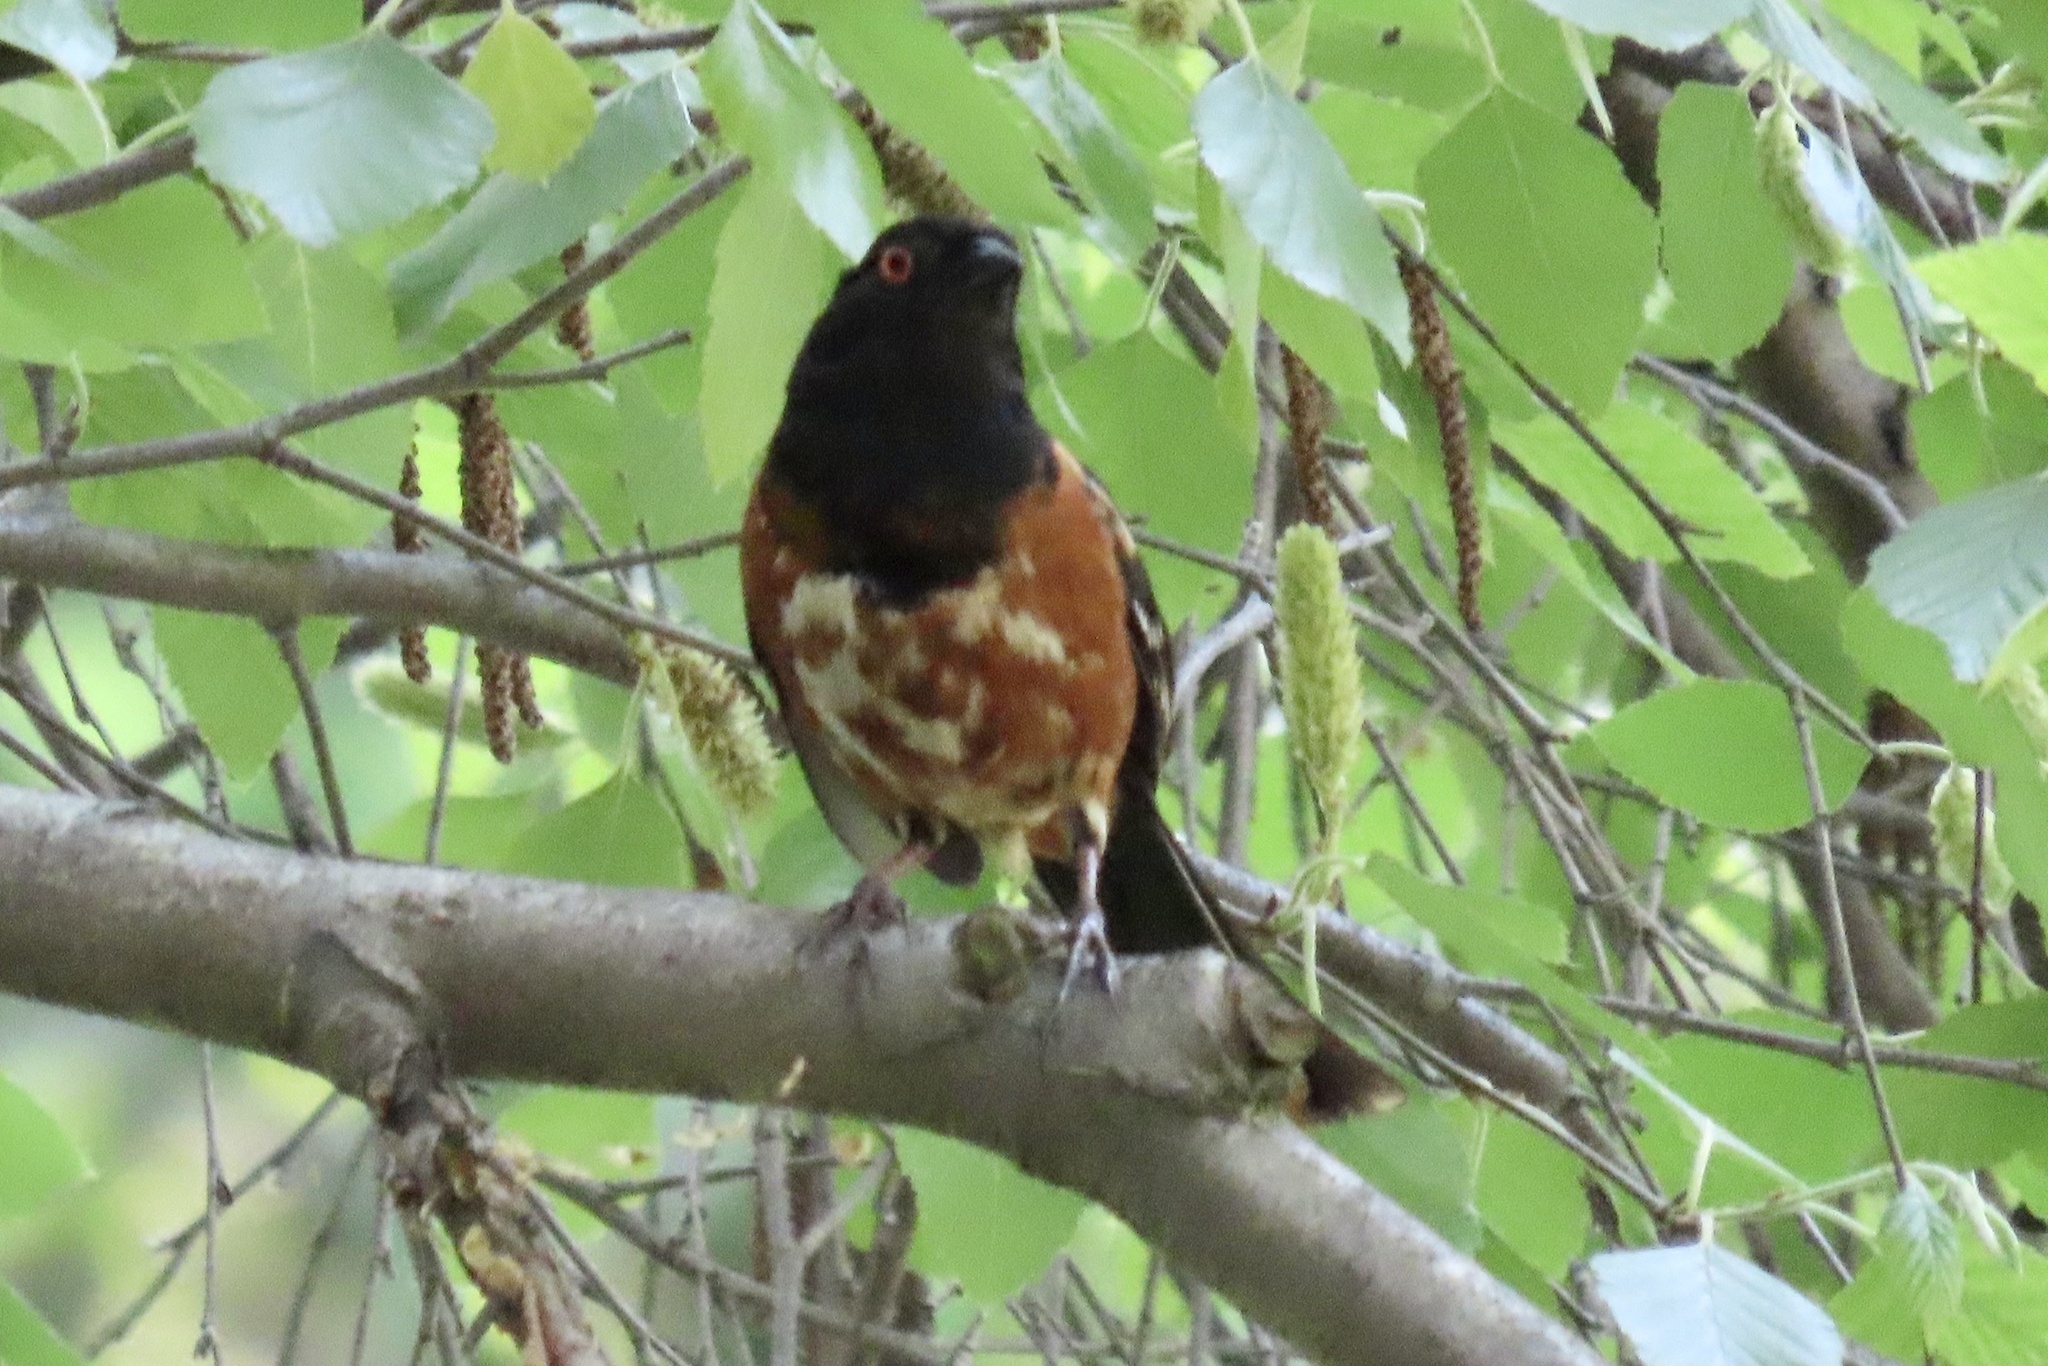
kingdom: Animalia
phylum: Chordata
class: Aves
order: Passeriformes
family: Passerellidae
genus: Pipilo
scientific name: Pipilo maculatus
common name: Spotted towhee
